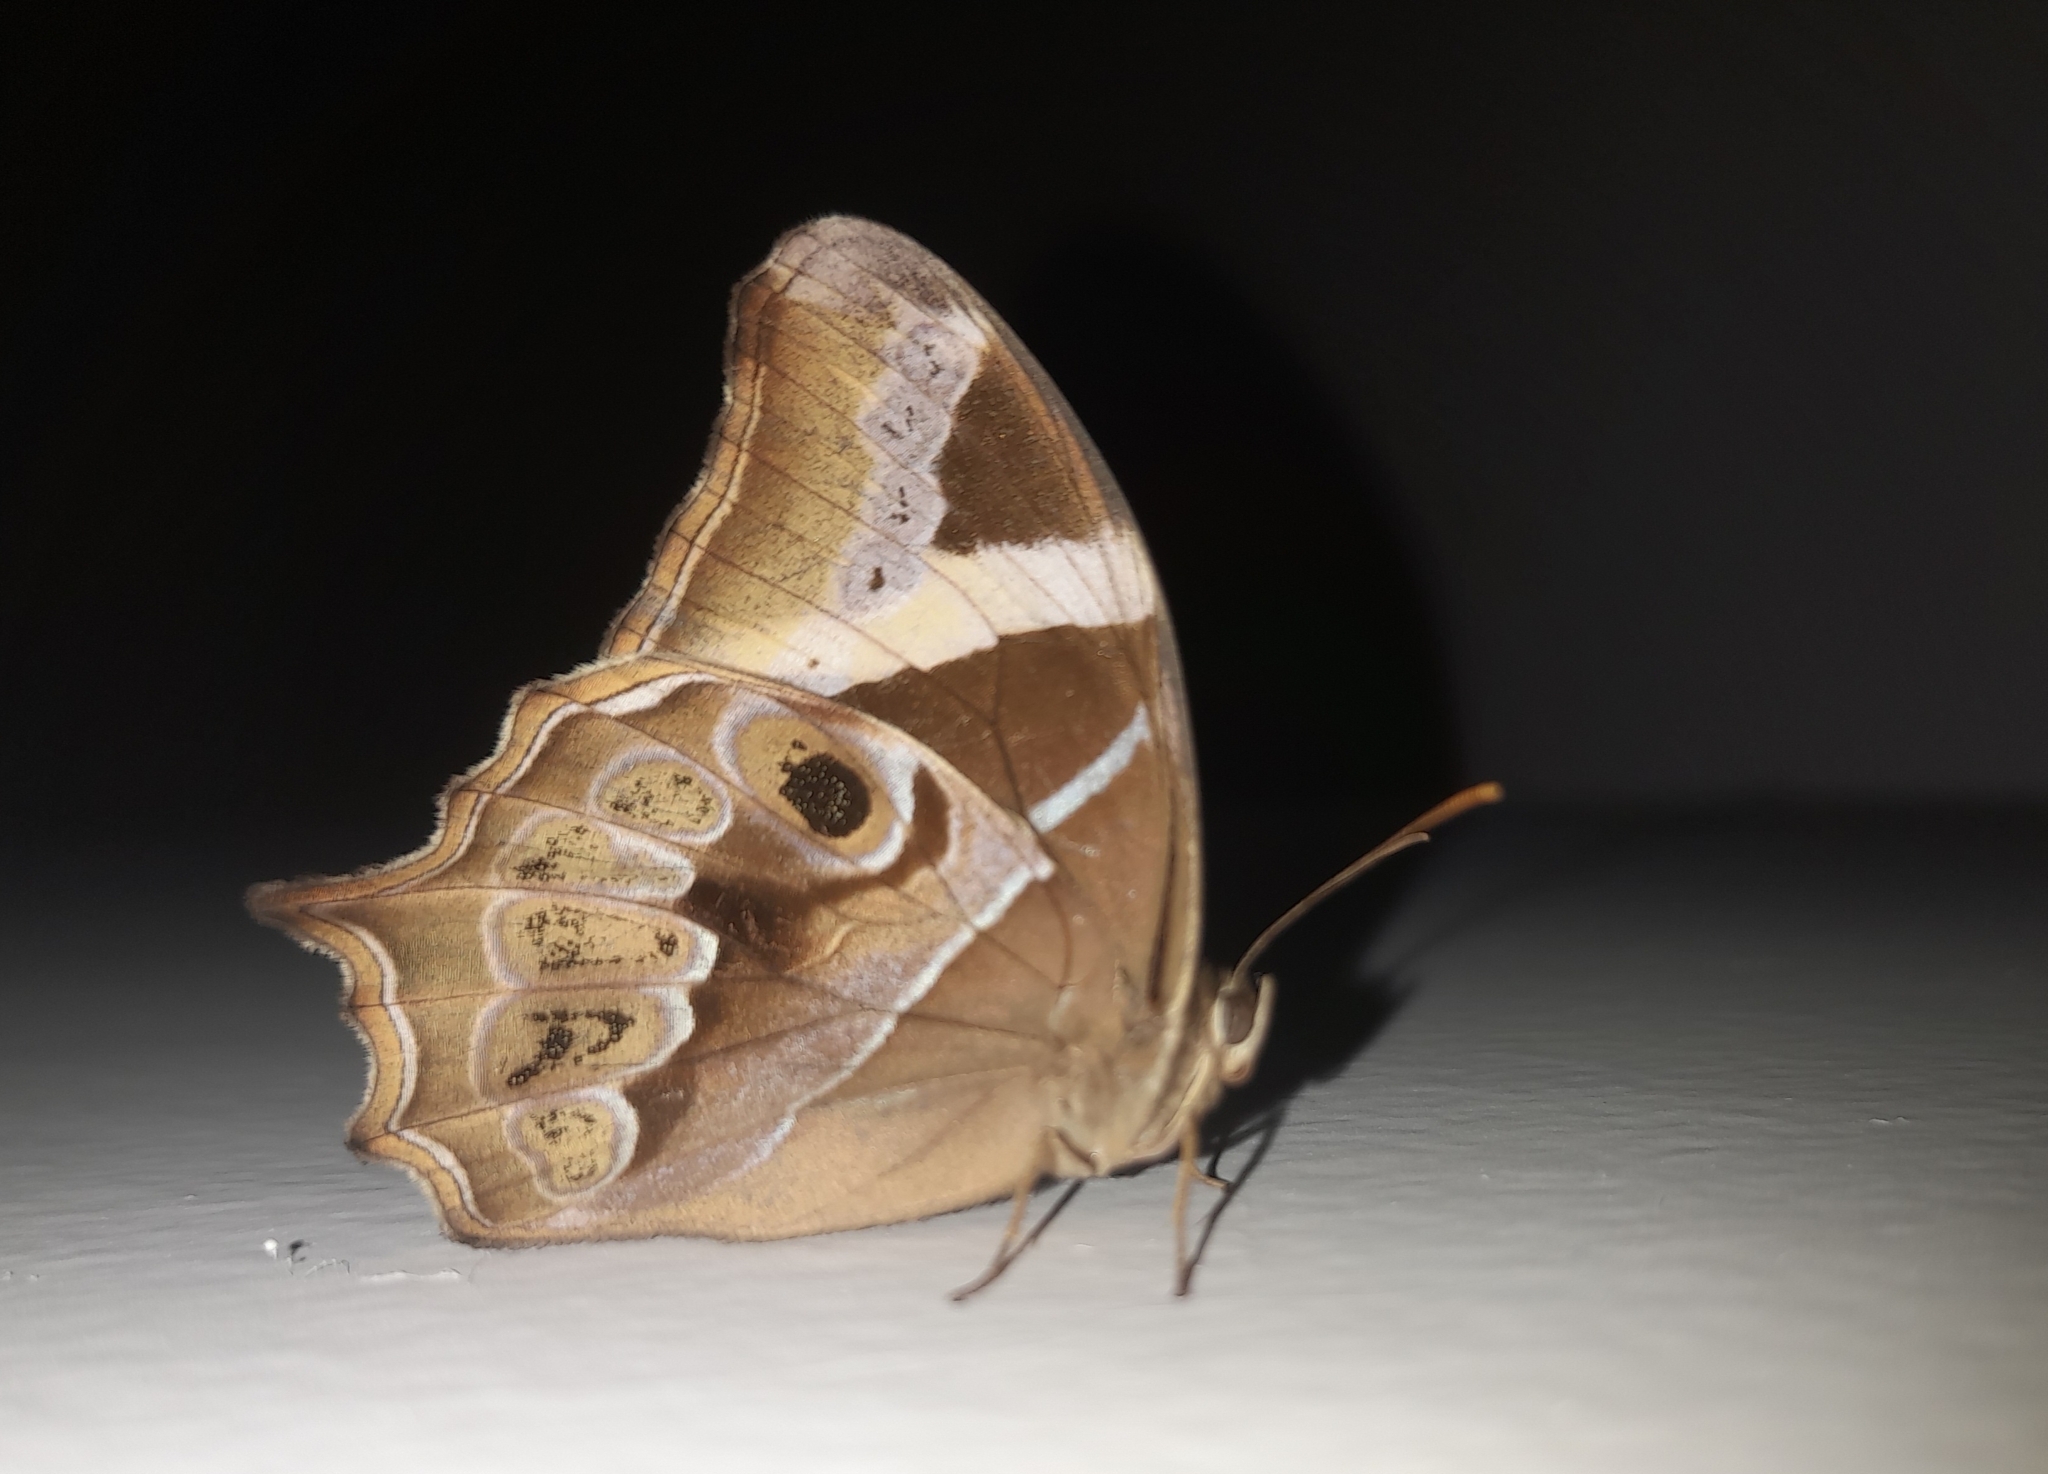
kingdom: Animalia
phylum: Arthropoda
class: Insecta
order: Lepidoptera
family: Nymphalidae
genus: Lethe
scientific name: Lethe europa
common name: Bamboo treebrown
